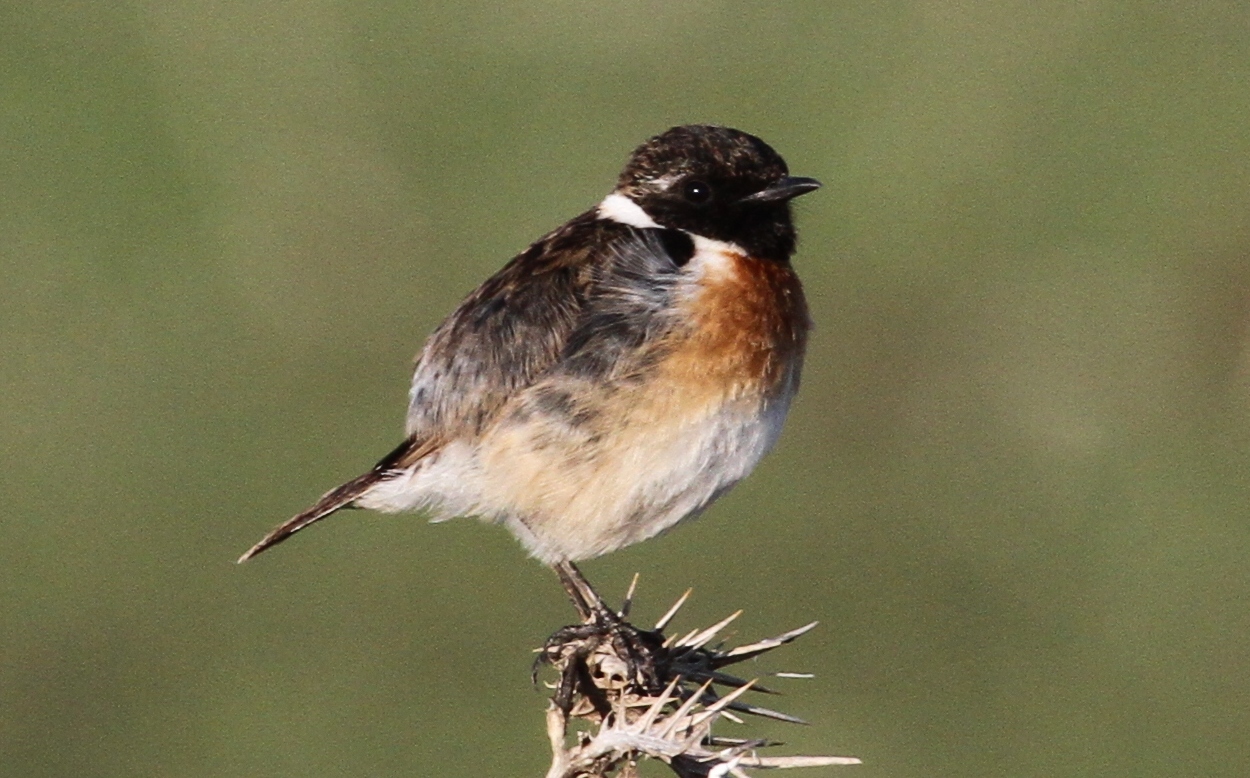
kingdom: Animalia
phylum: Chordata
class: Aves
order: Passeriformes
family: Muscicapidae
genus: Saxicola
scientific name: Saxicola rubicola
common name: European stonechat
